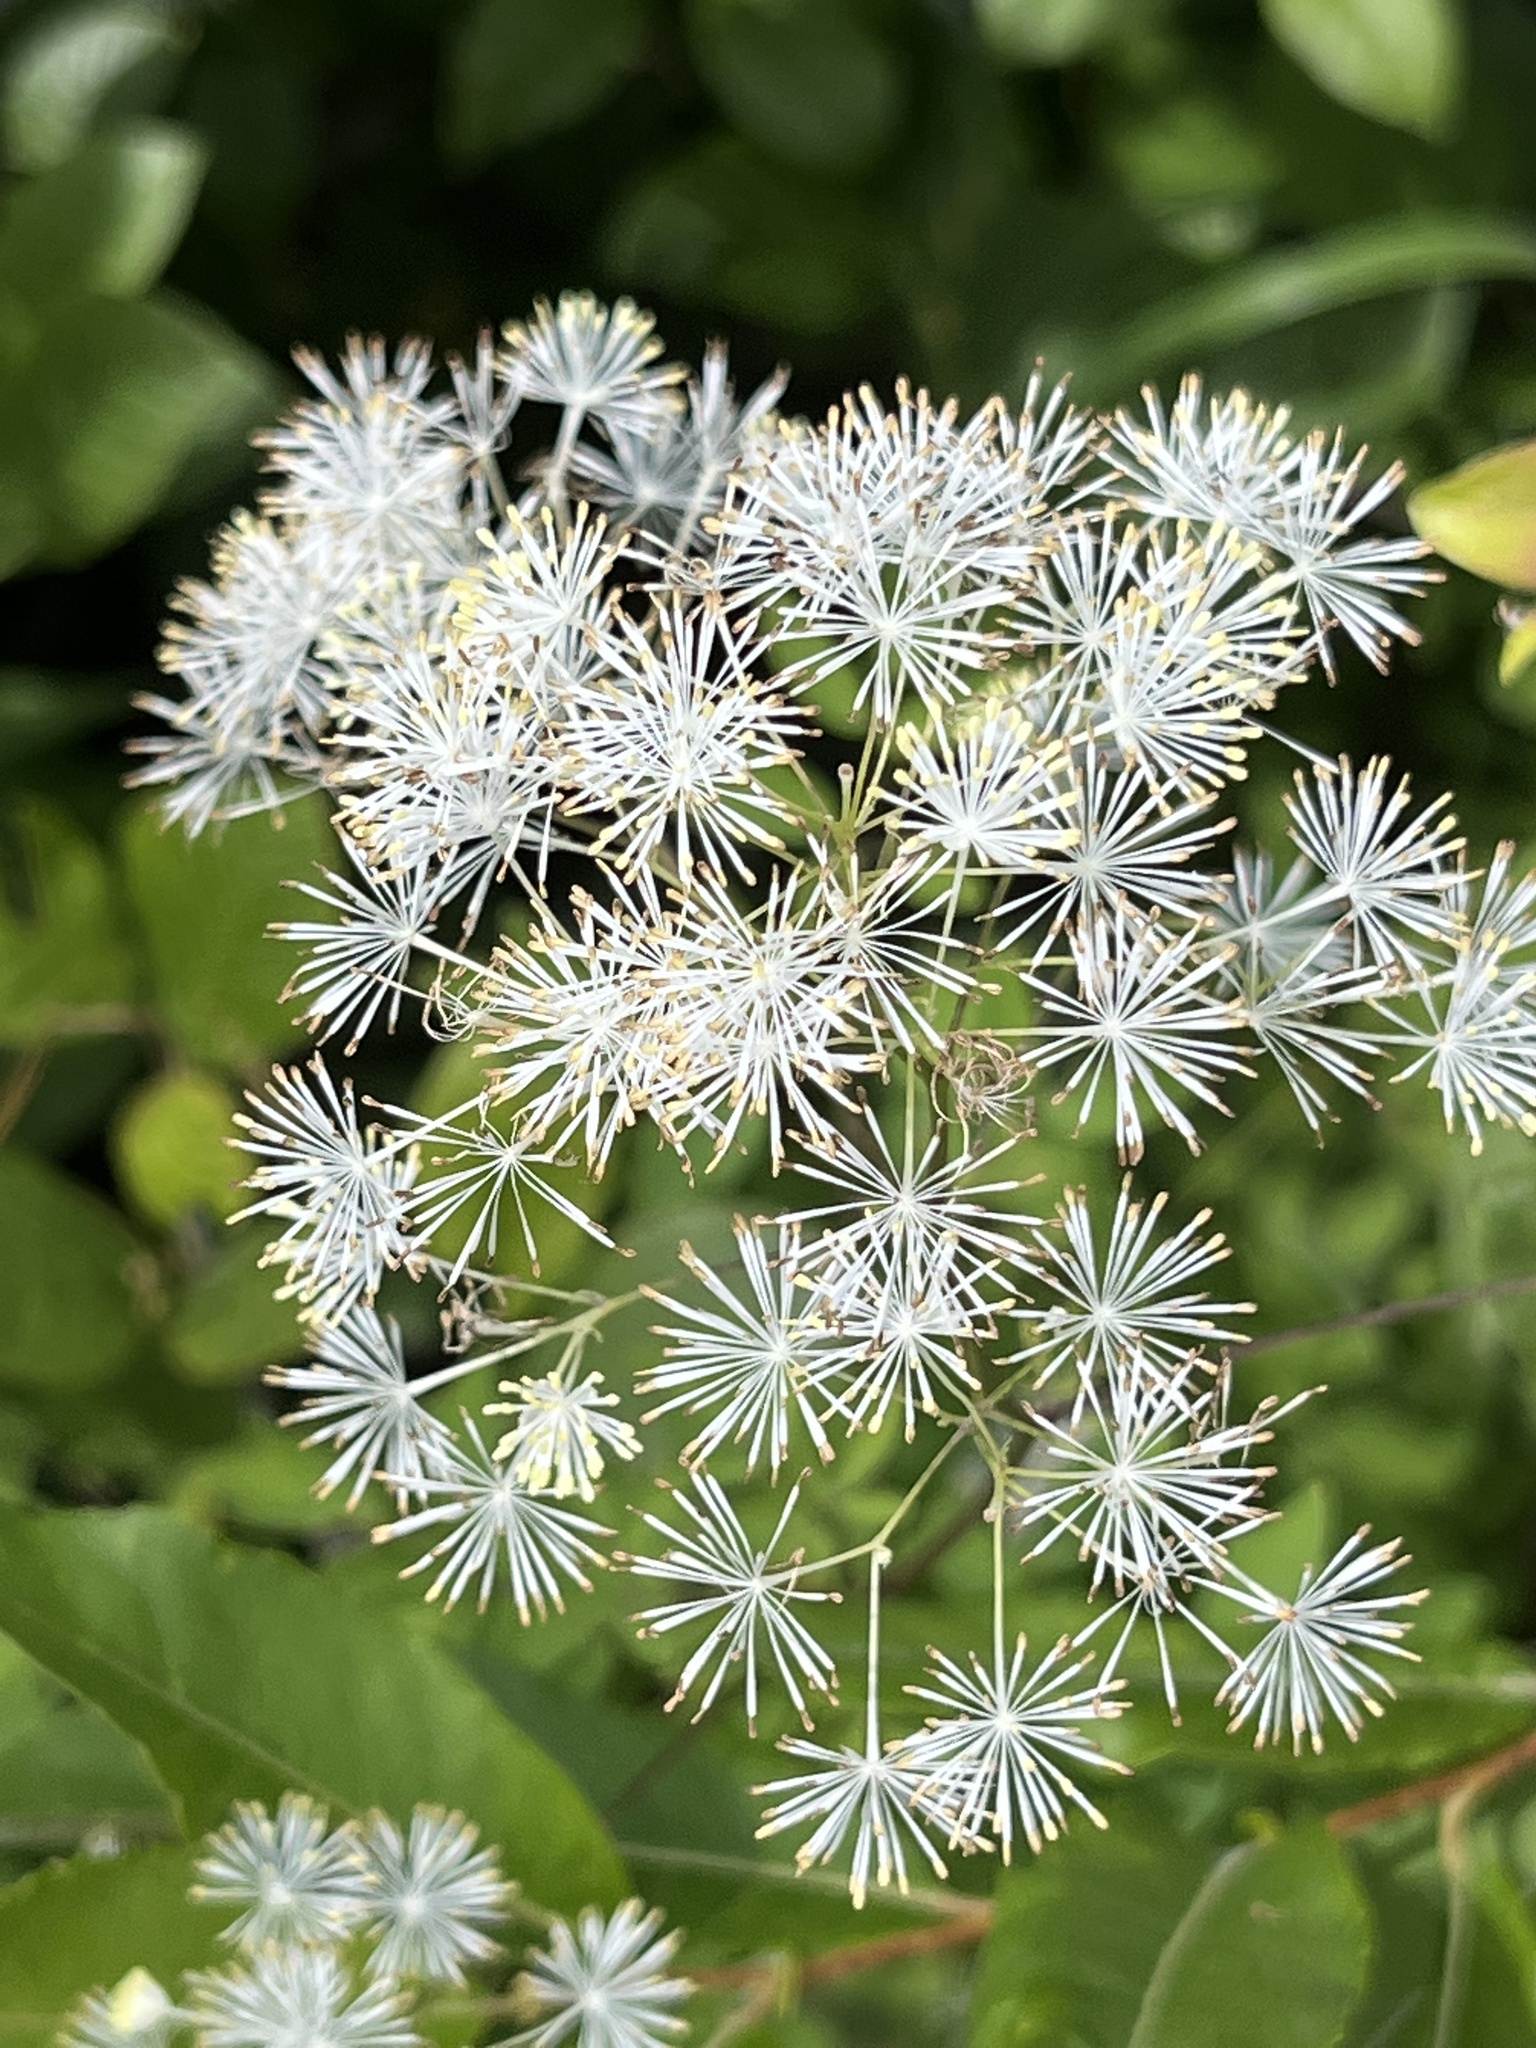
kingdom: Plantae
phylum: Tracheophyta
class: Magnoliopsida
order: Ranunculales
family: Ranunculaceae
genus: Thalictrum
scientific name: Thalictrum pubescens
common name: King-of-the-meadow
